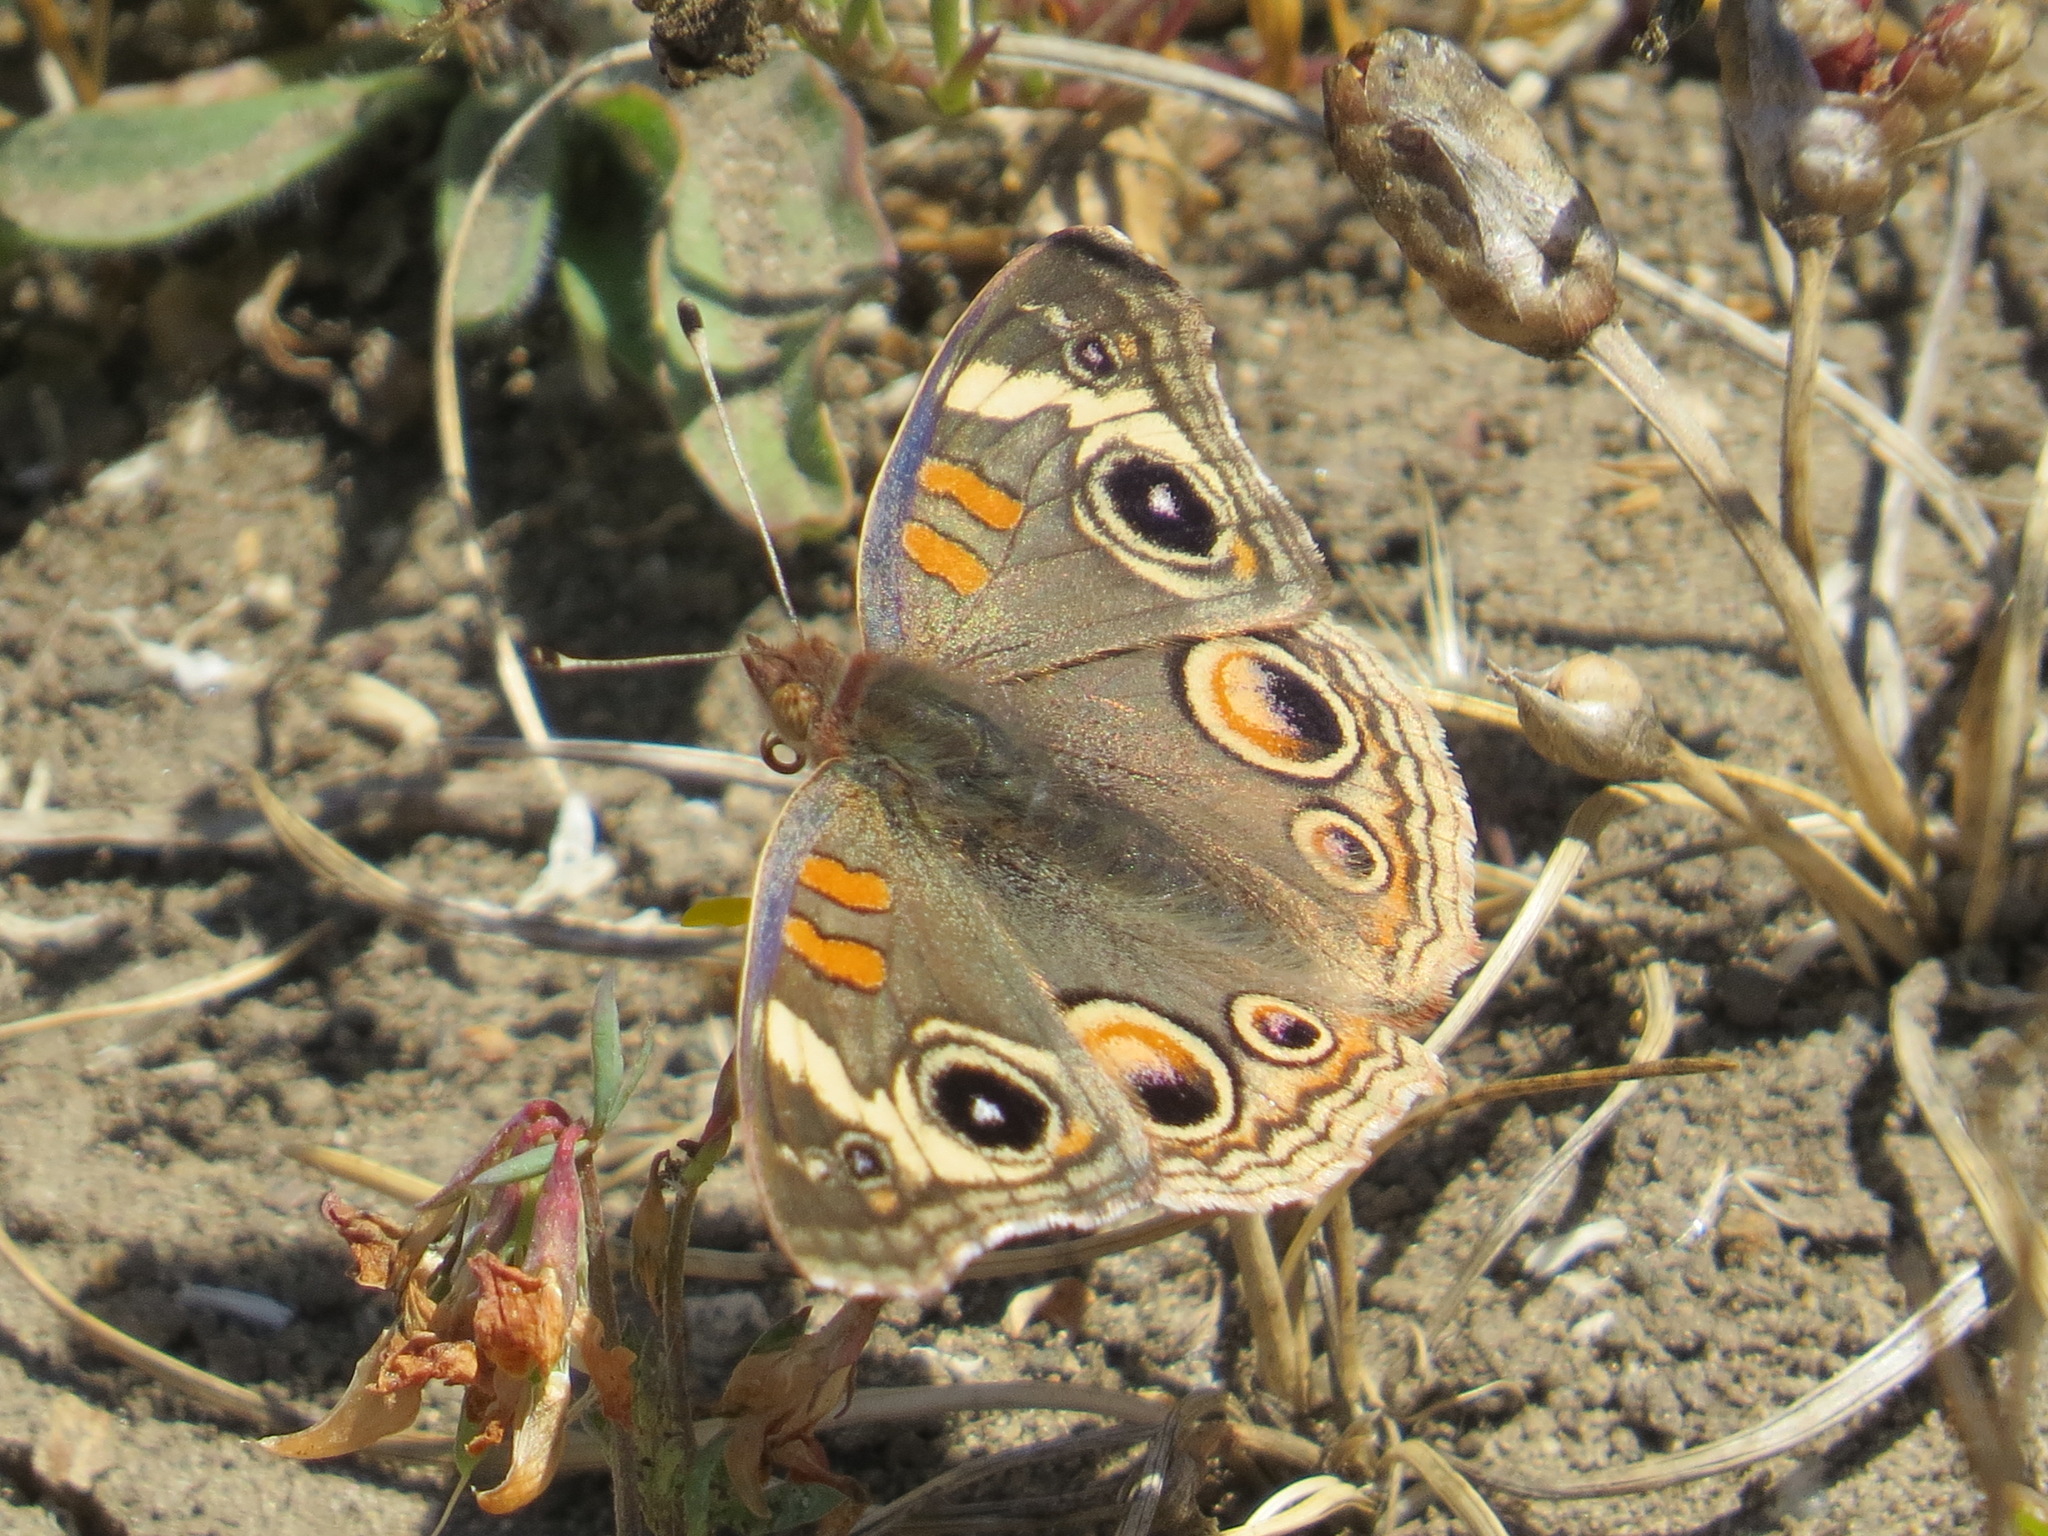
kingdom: Animalia
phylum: Arthropoda
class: Insecta
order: Lepidoptera
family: Nymphalidae
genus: Junonia
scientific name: Junonia grisea
